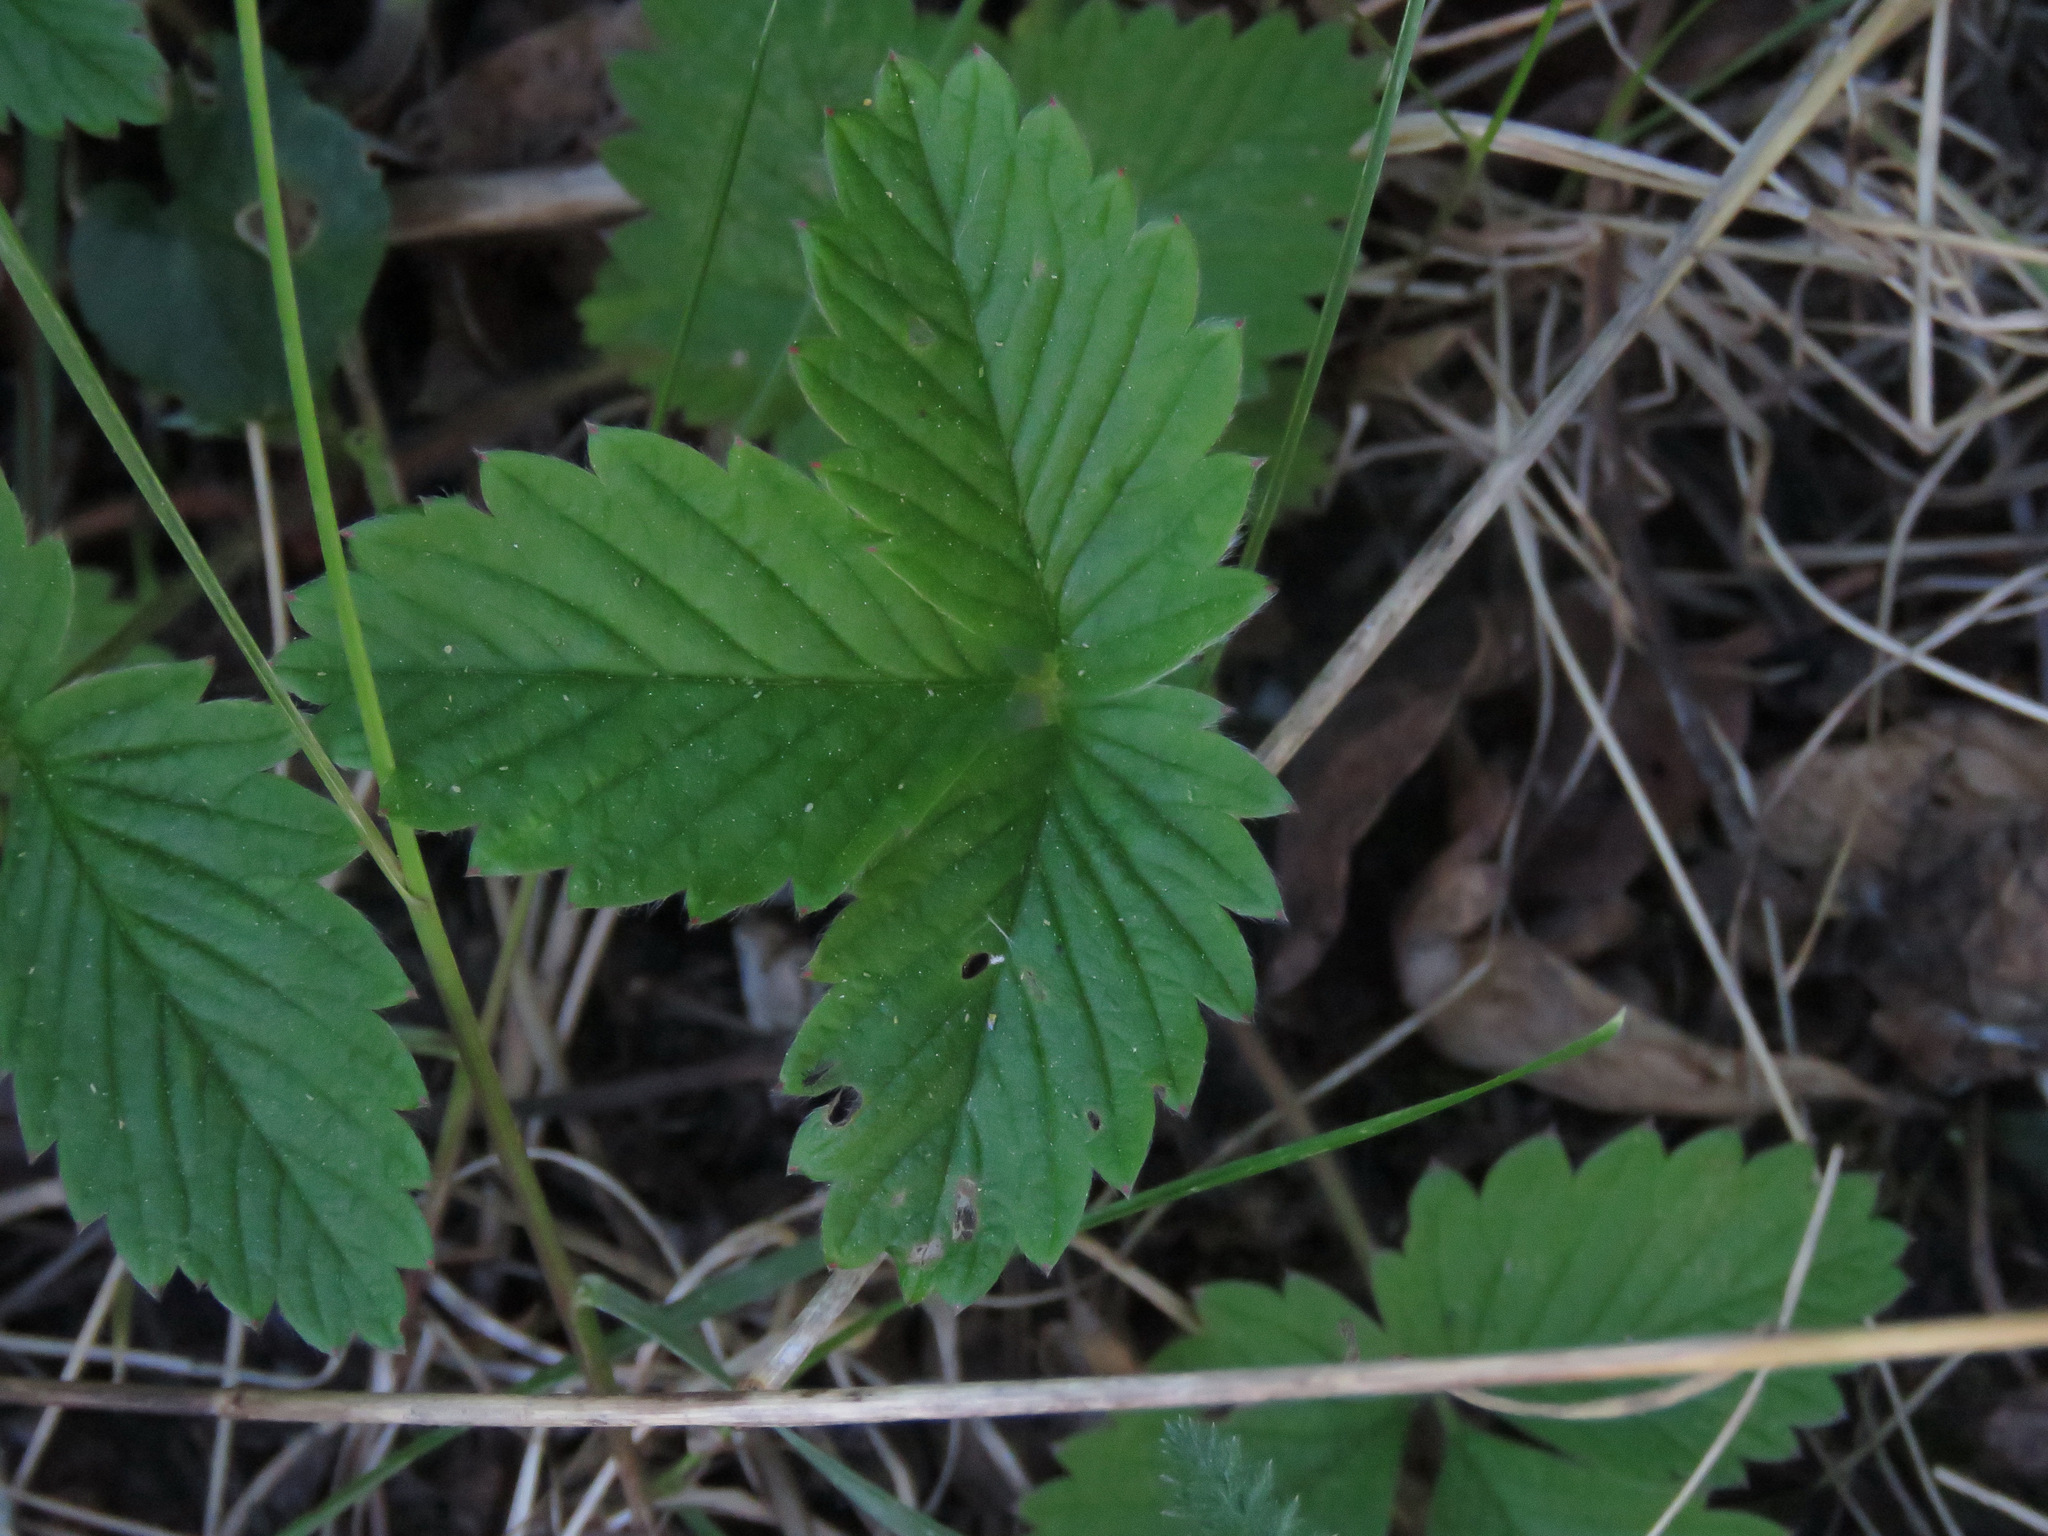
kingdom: Plantae
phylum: Tracheophyta
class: Magnoliopsida
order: Rosales
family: Rosaceae
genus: Fragaria
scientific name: Fragaria vesca
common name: Wild strawberry
